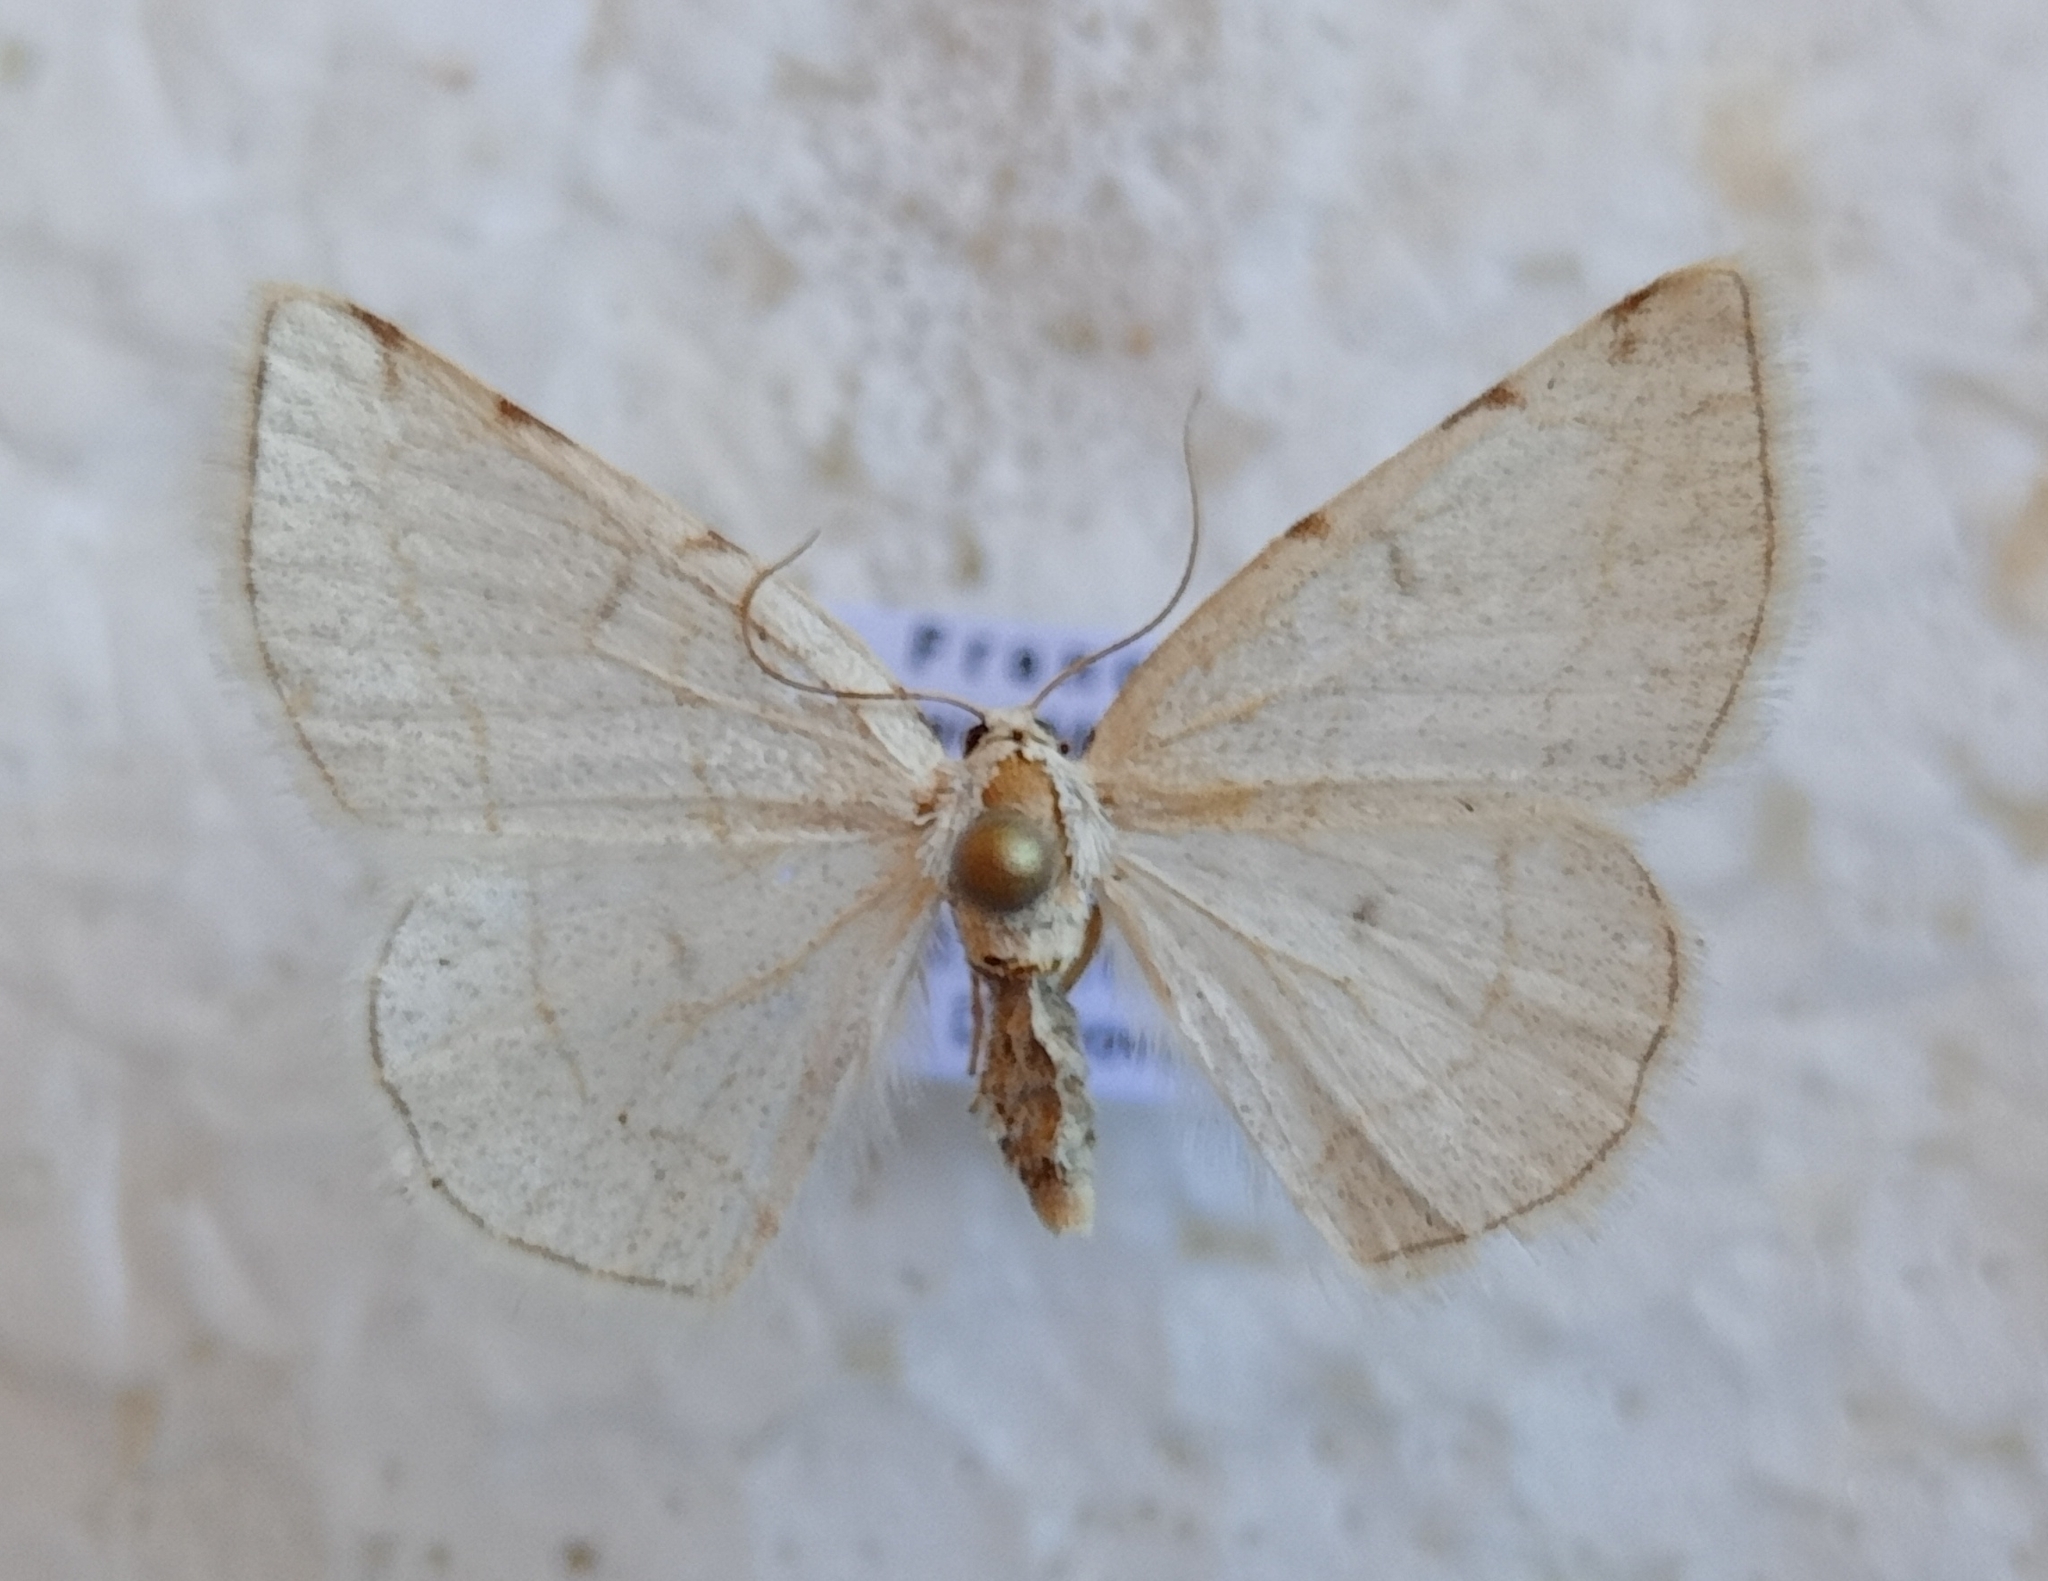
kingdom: Animalia
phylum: Arthropoda
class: Insecta
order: Lepidoptera
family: Geometridae
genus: Stegania
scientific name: Stegania trimaculata
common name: Dorset cream wave
